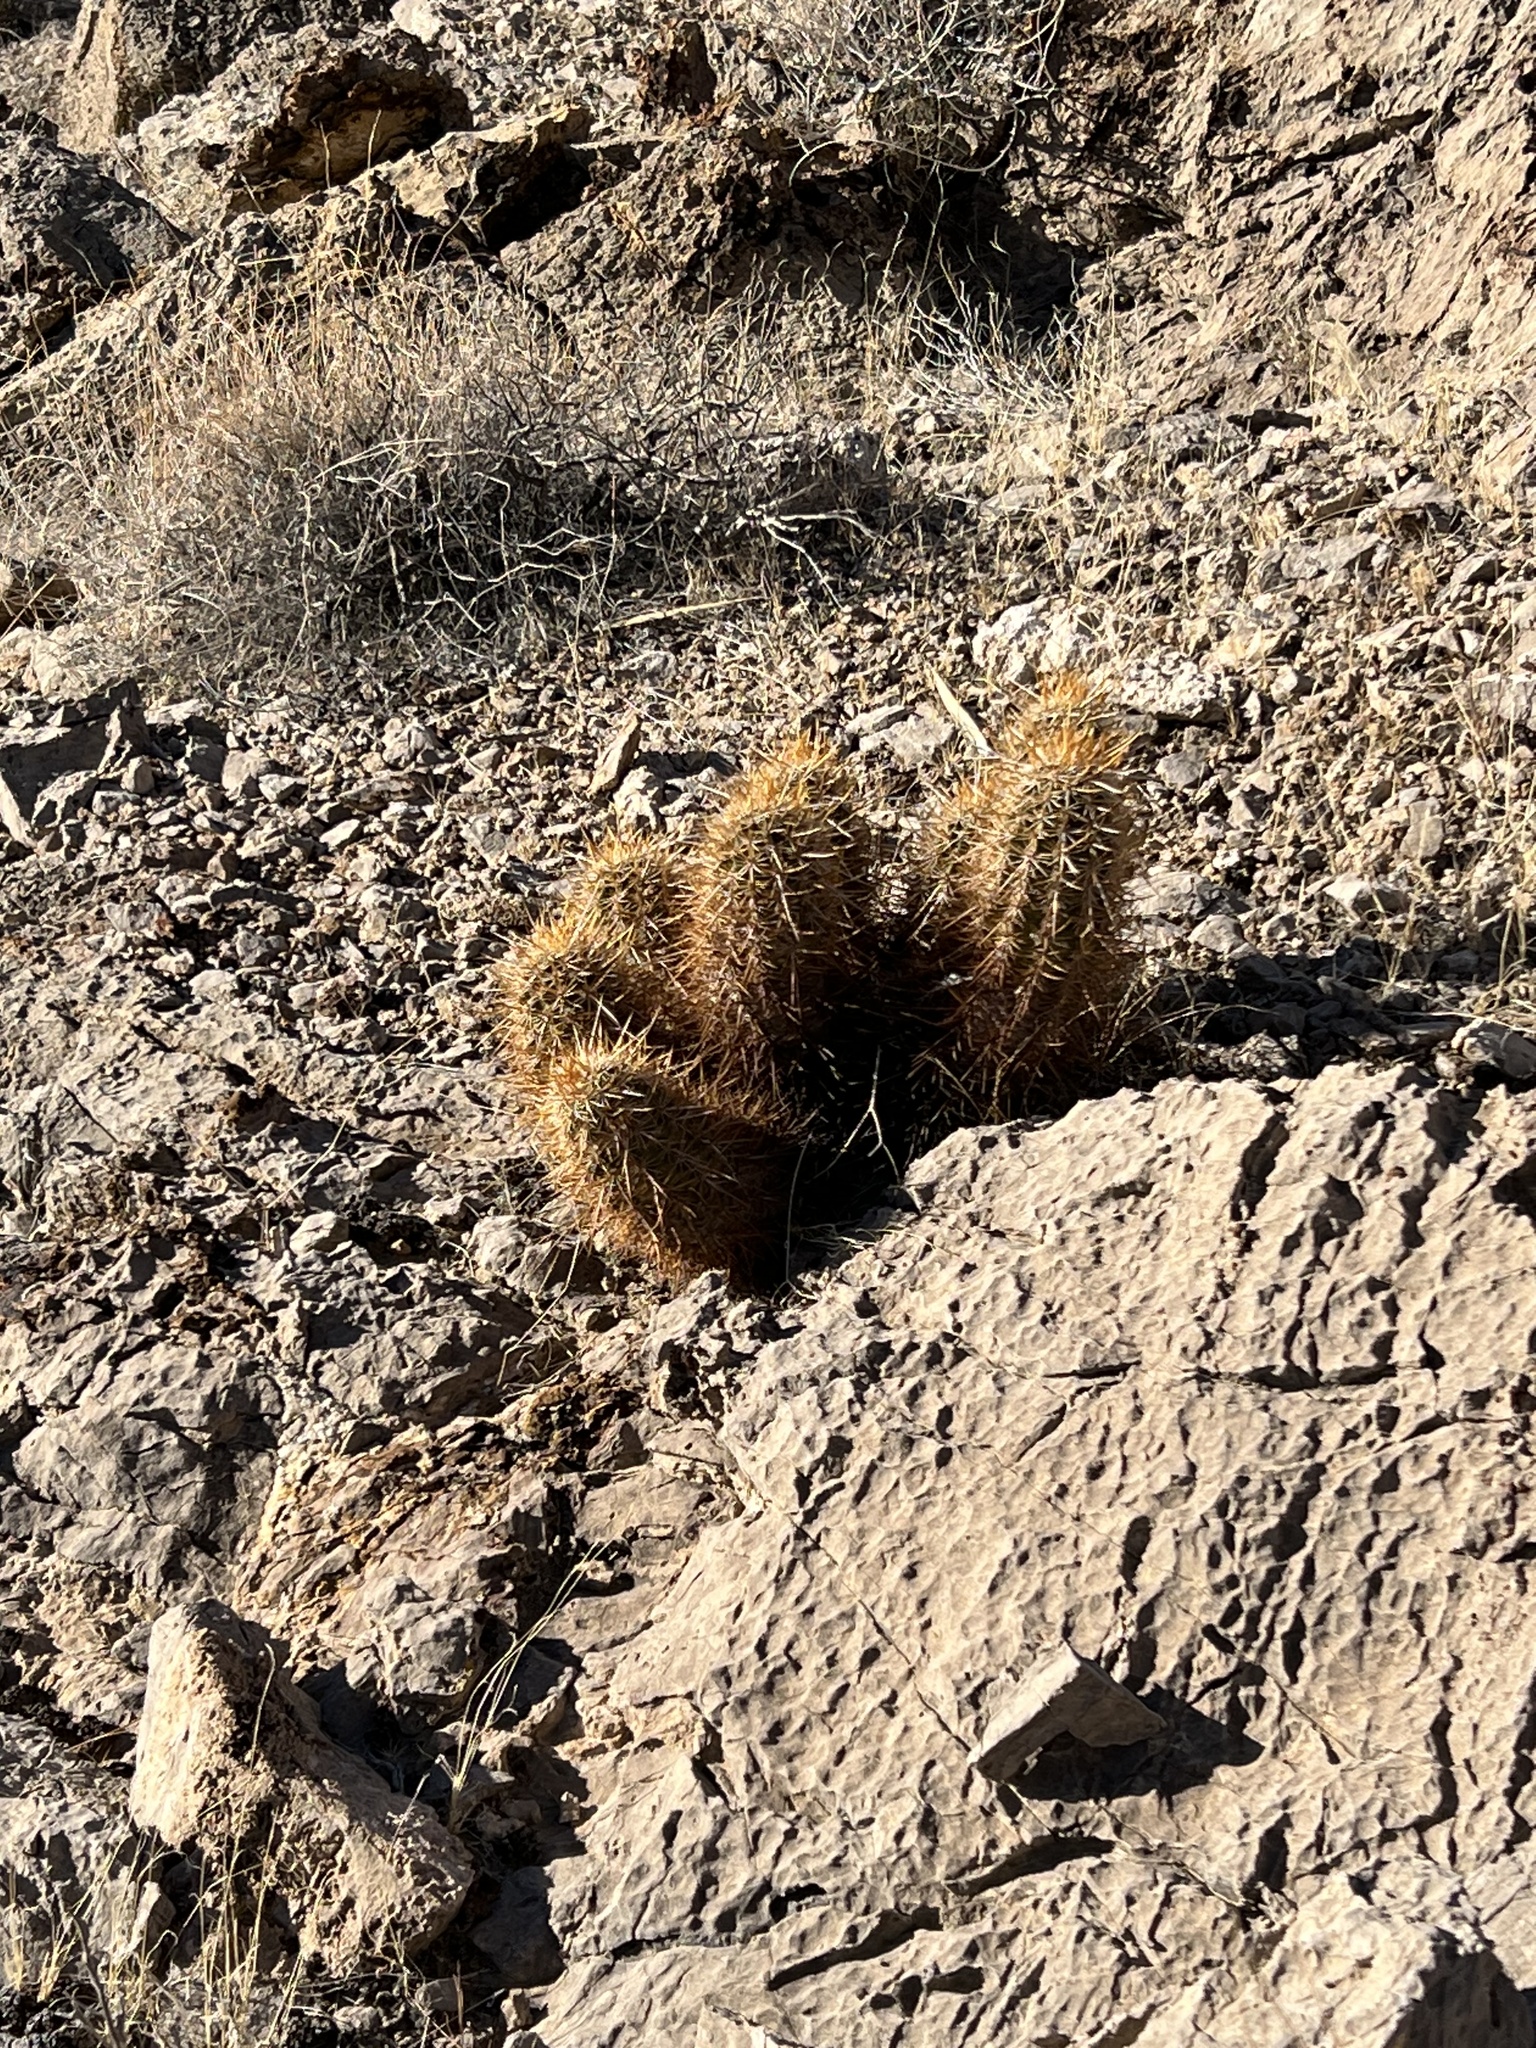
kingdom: Plantae
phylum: Tracheophyta
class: Magnoliopsida
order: Caryophyllales
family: Cactaceae
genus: Echinocereus
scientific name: Echinocereus engelmannii
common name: Engelmann's hedgehog cactus
